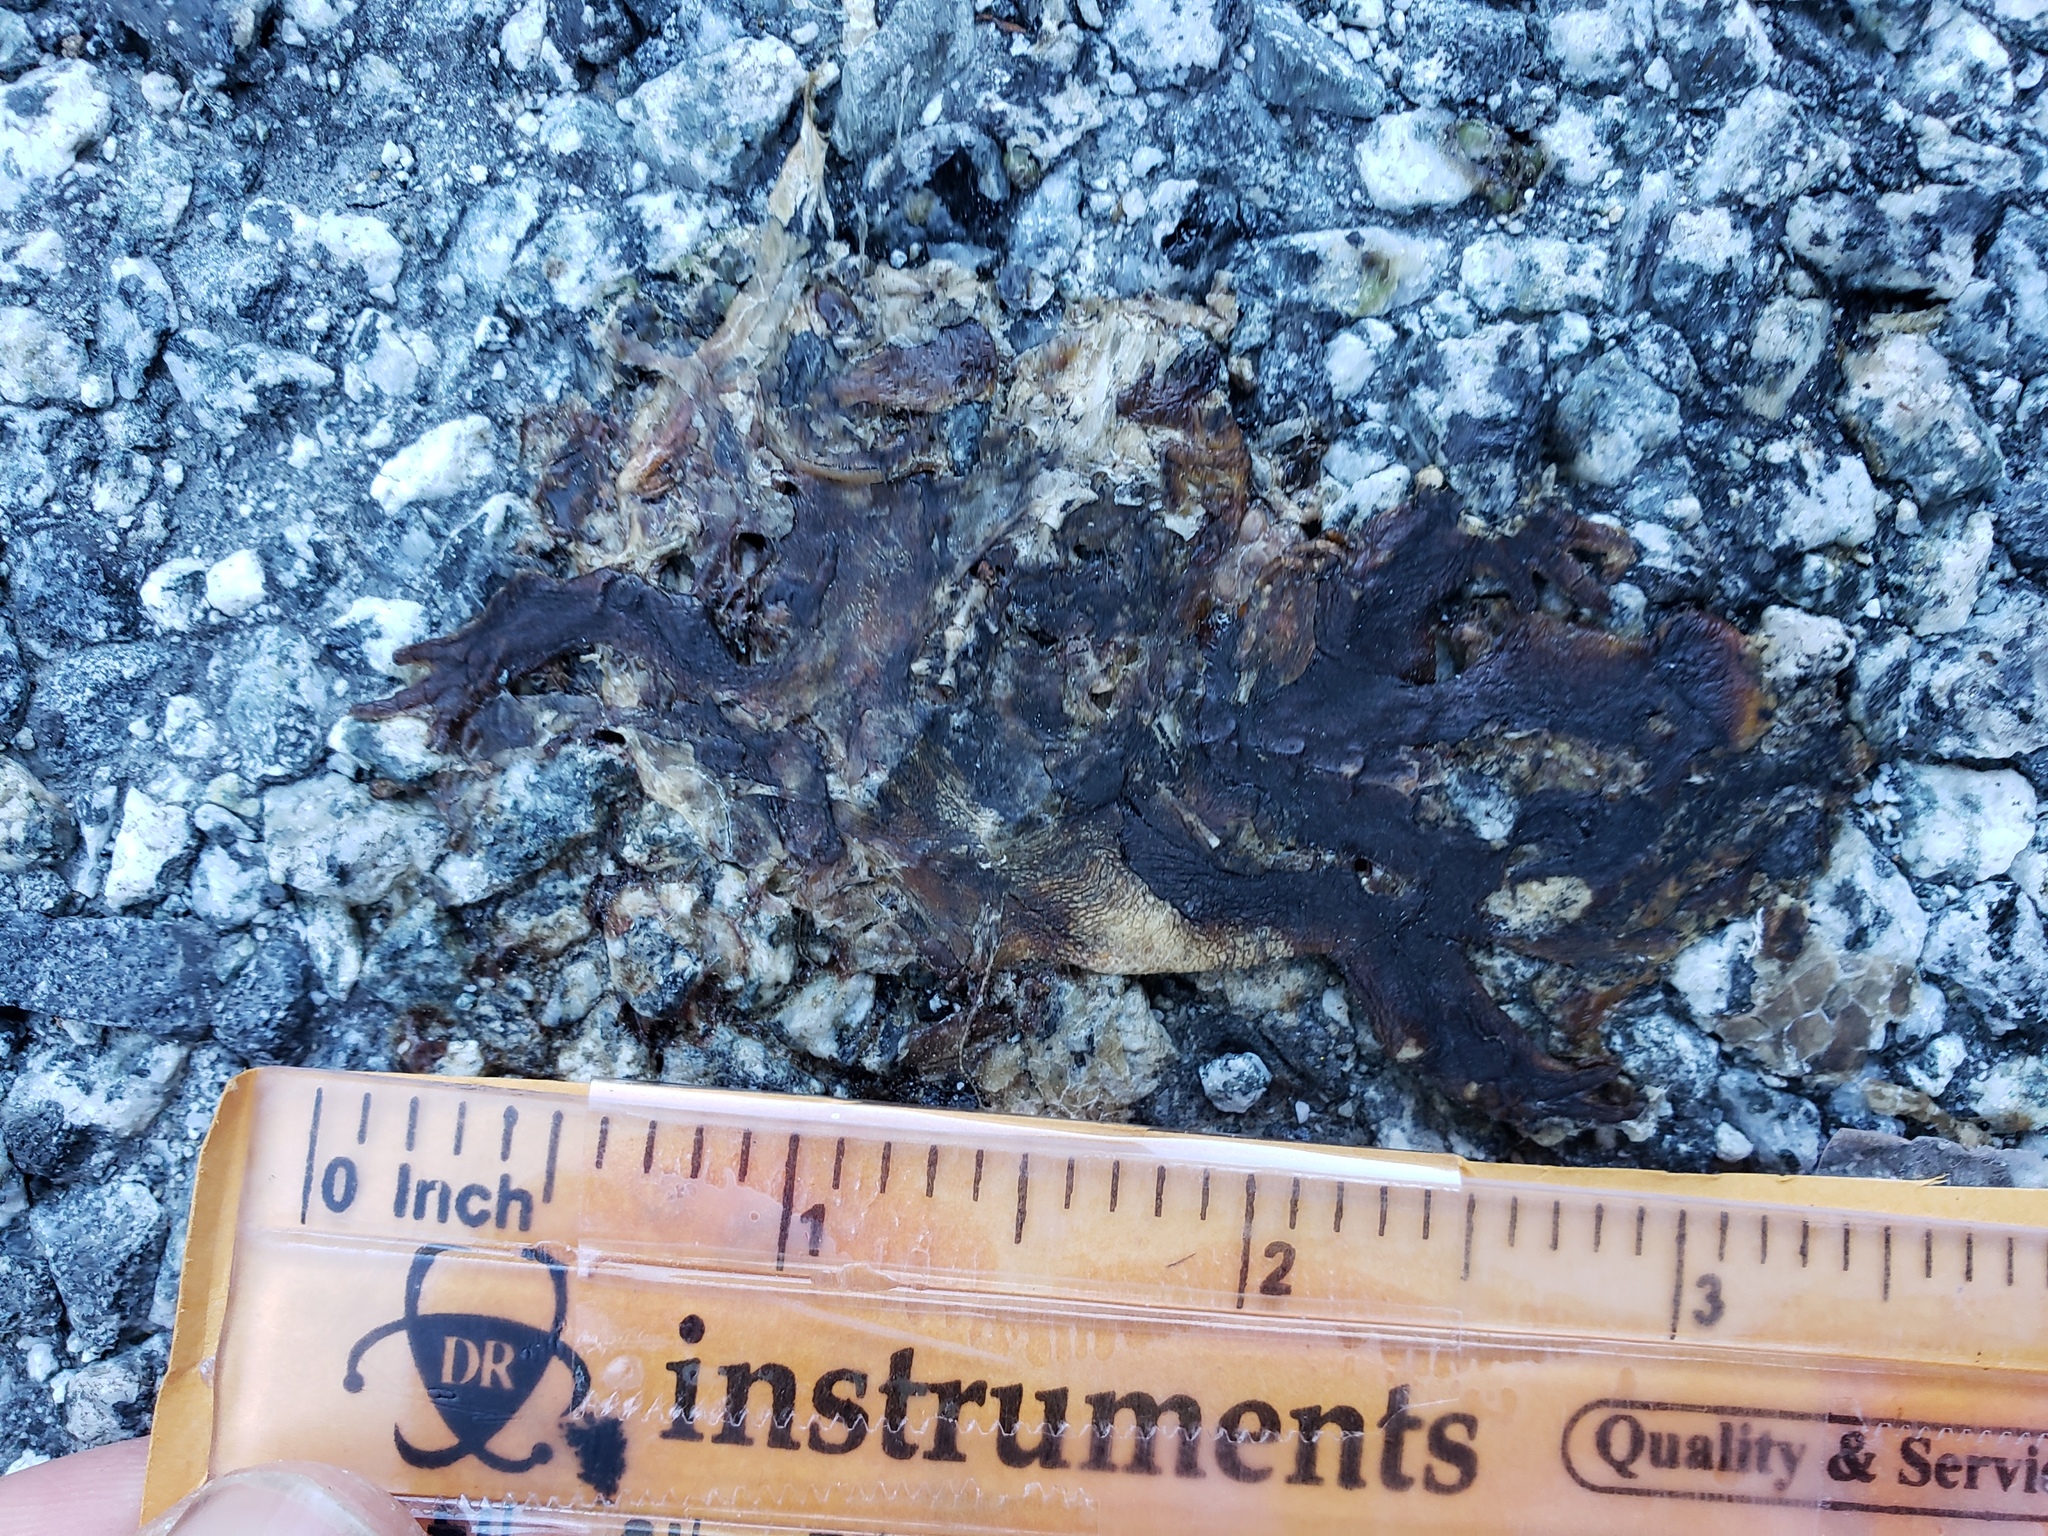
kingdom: Animalia
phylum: Chordata
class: Amphibia
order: Caudata
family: Salamandridae
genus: Taricha
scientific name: Taricha
